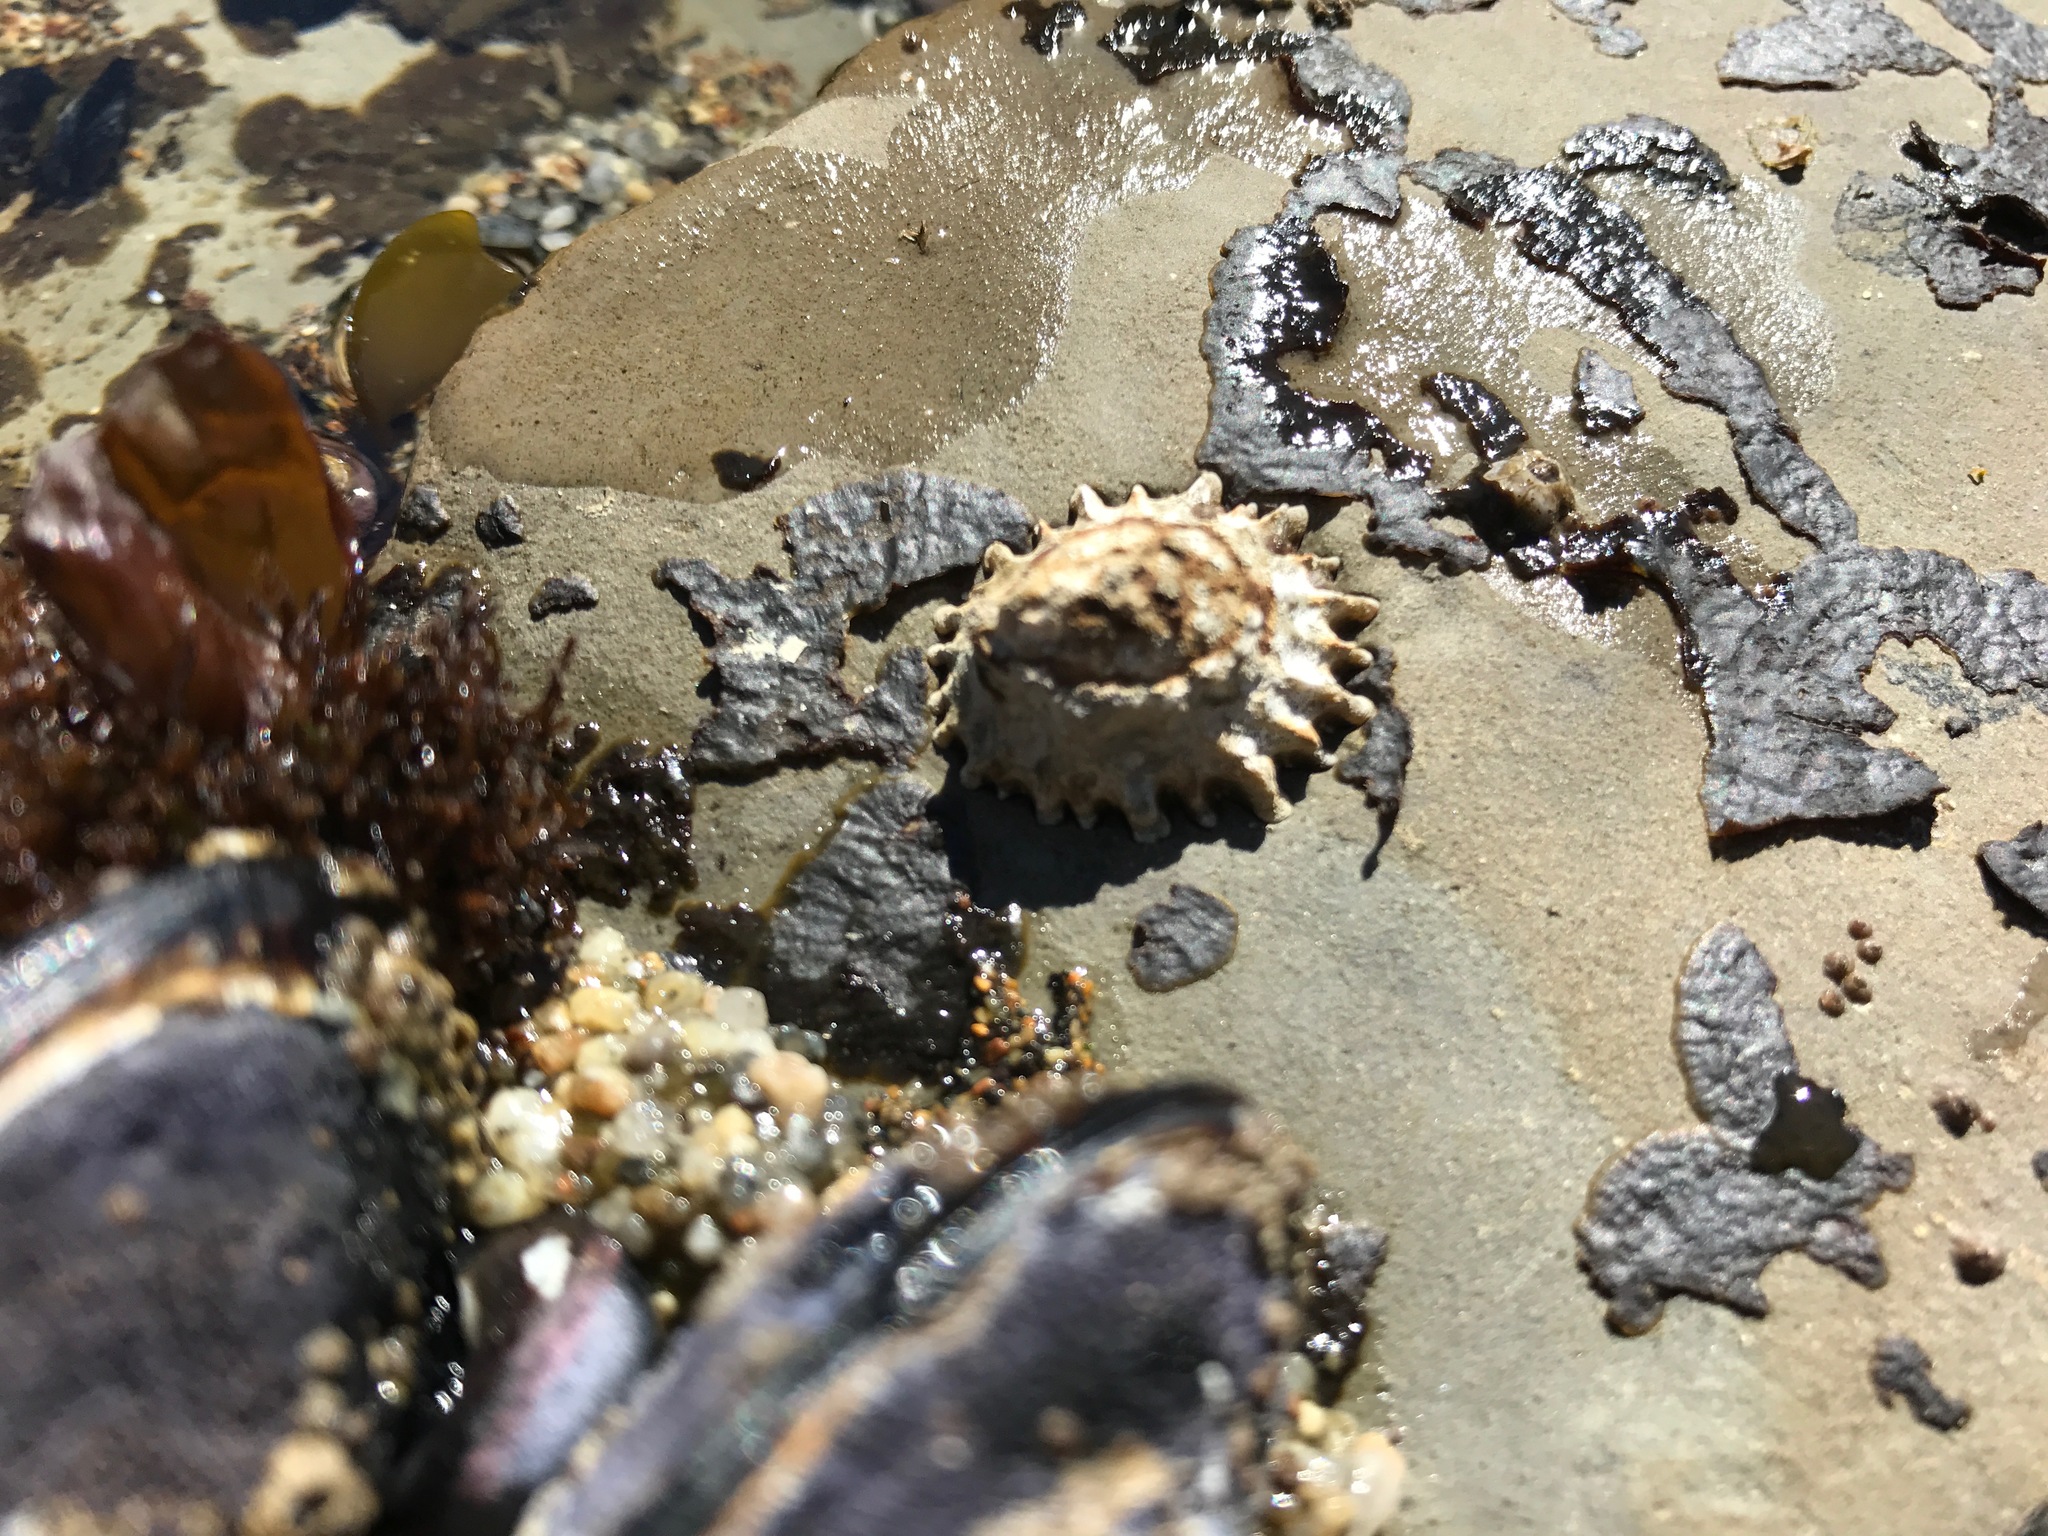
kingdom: Animalia
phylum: Mollusca
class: Gastropoda
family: Lottiidae
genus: Lottia
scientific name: Lottia scabra
